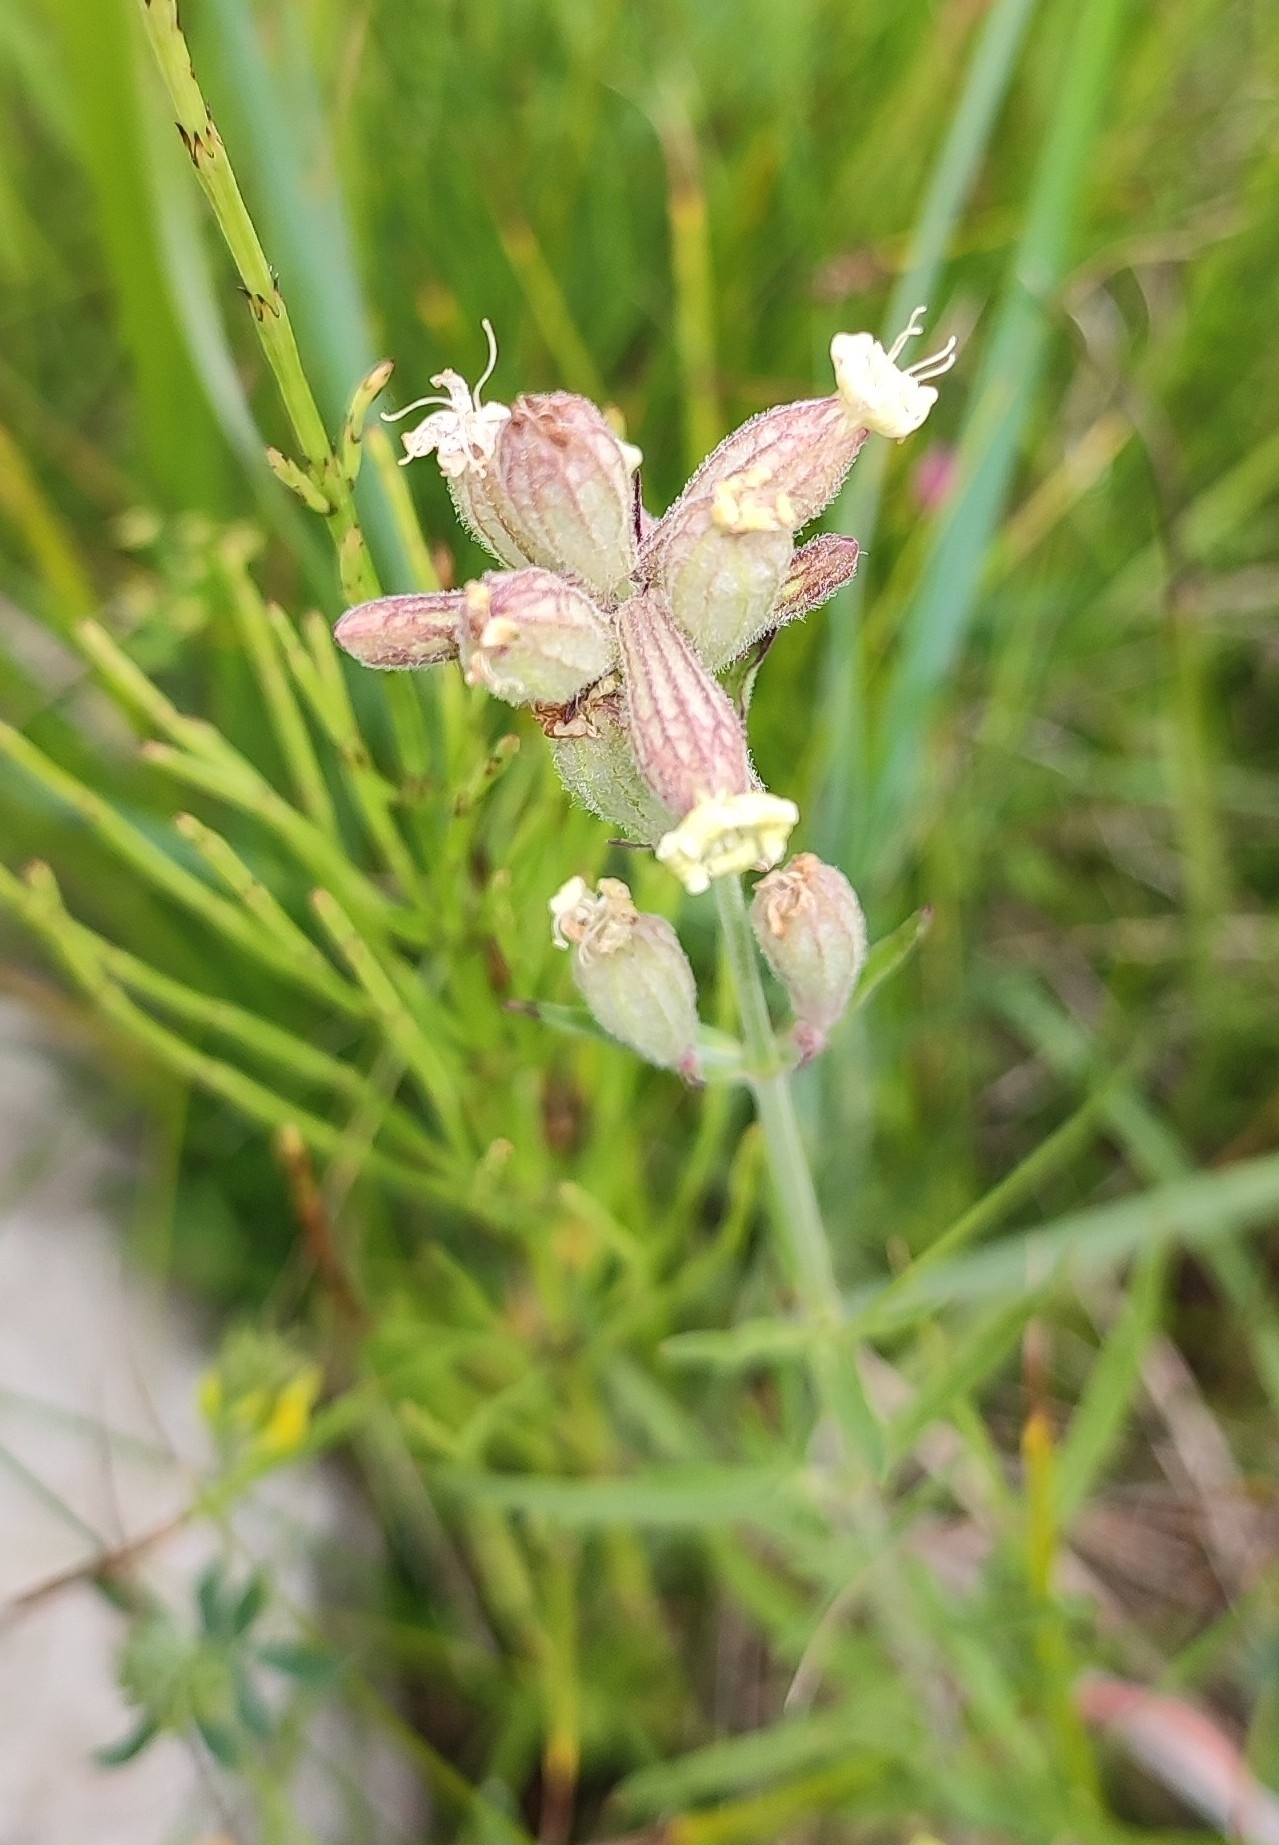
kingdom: Plantae
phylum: Tracheophyta
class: Magnoliopsida
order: Caryophyllales
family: Caryophyllaceae
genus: Silene
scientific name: Silene amoena
